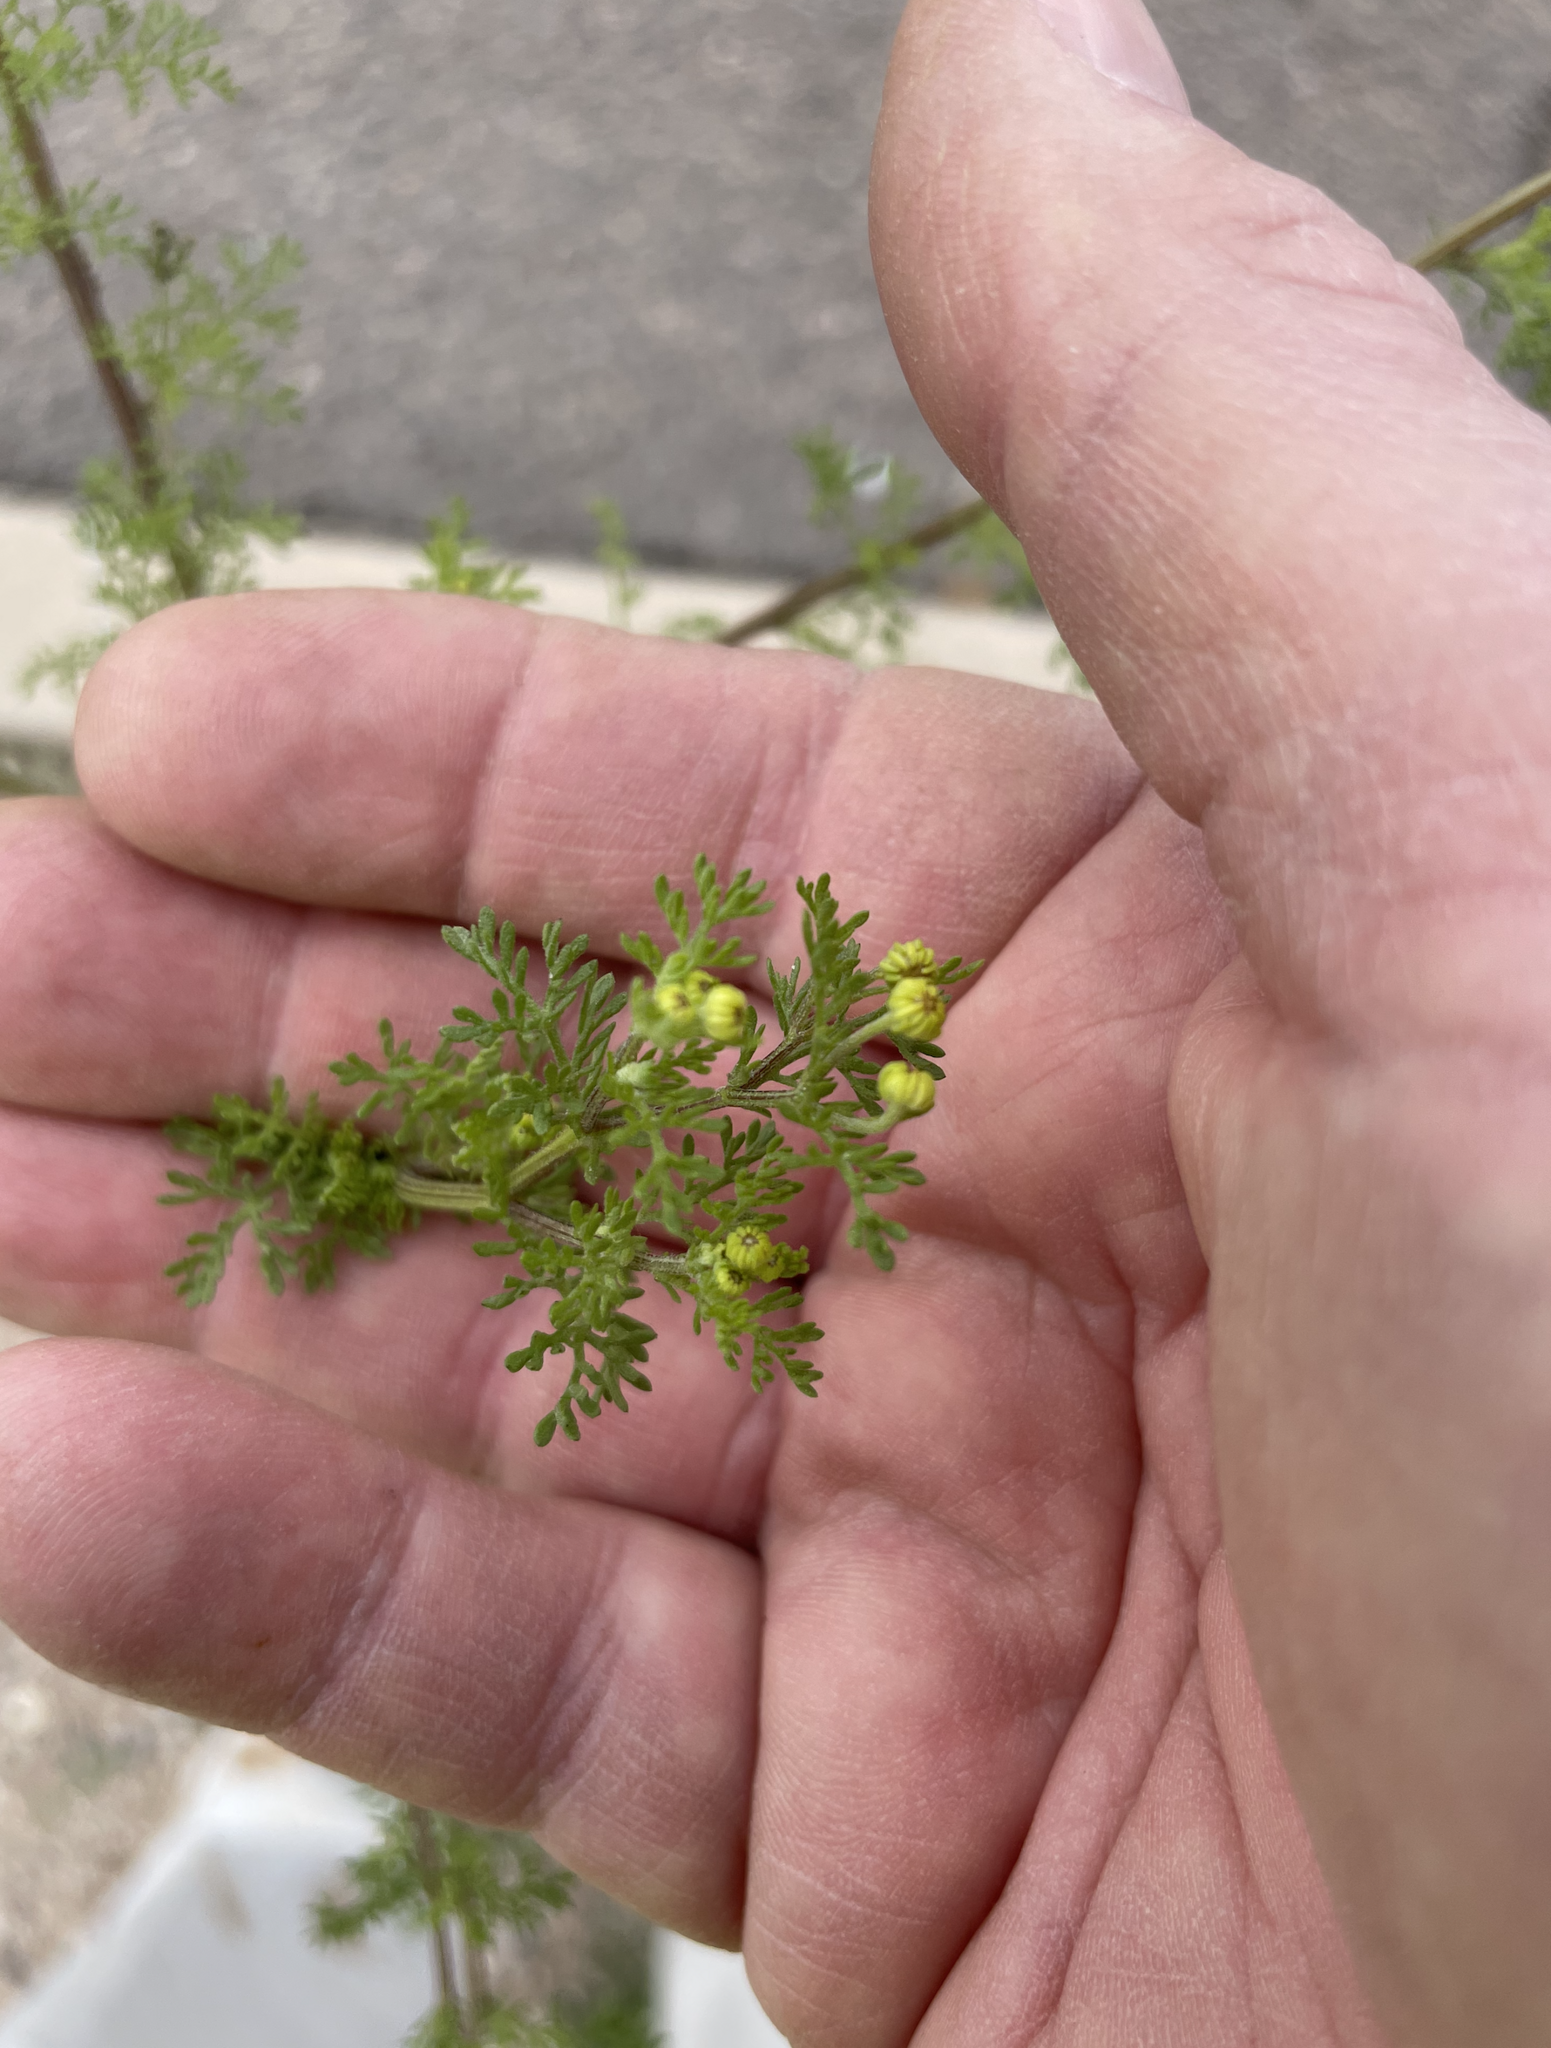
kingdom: Plantae
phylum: Tracheophyta
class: Magnoliopsida
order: Asterales
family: Asteraceae
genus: Oncosiphon
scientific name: Oncosiphon pilulifer
